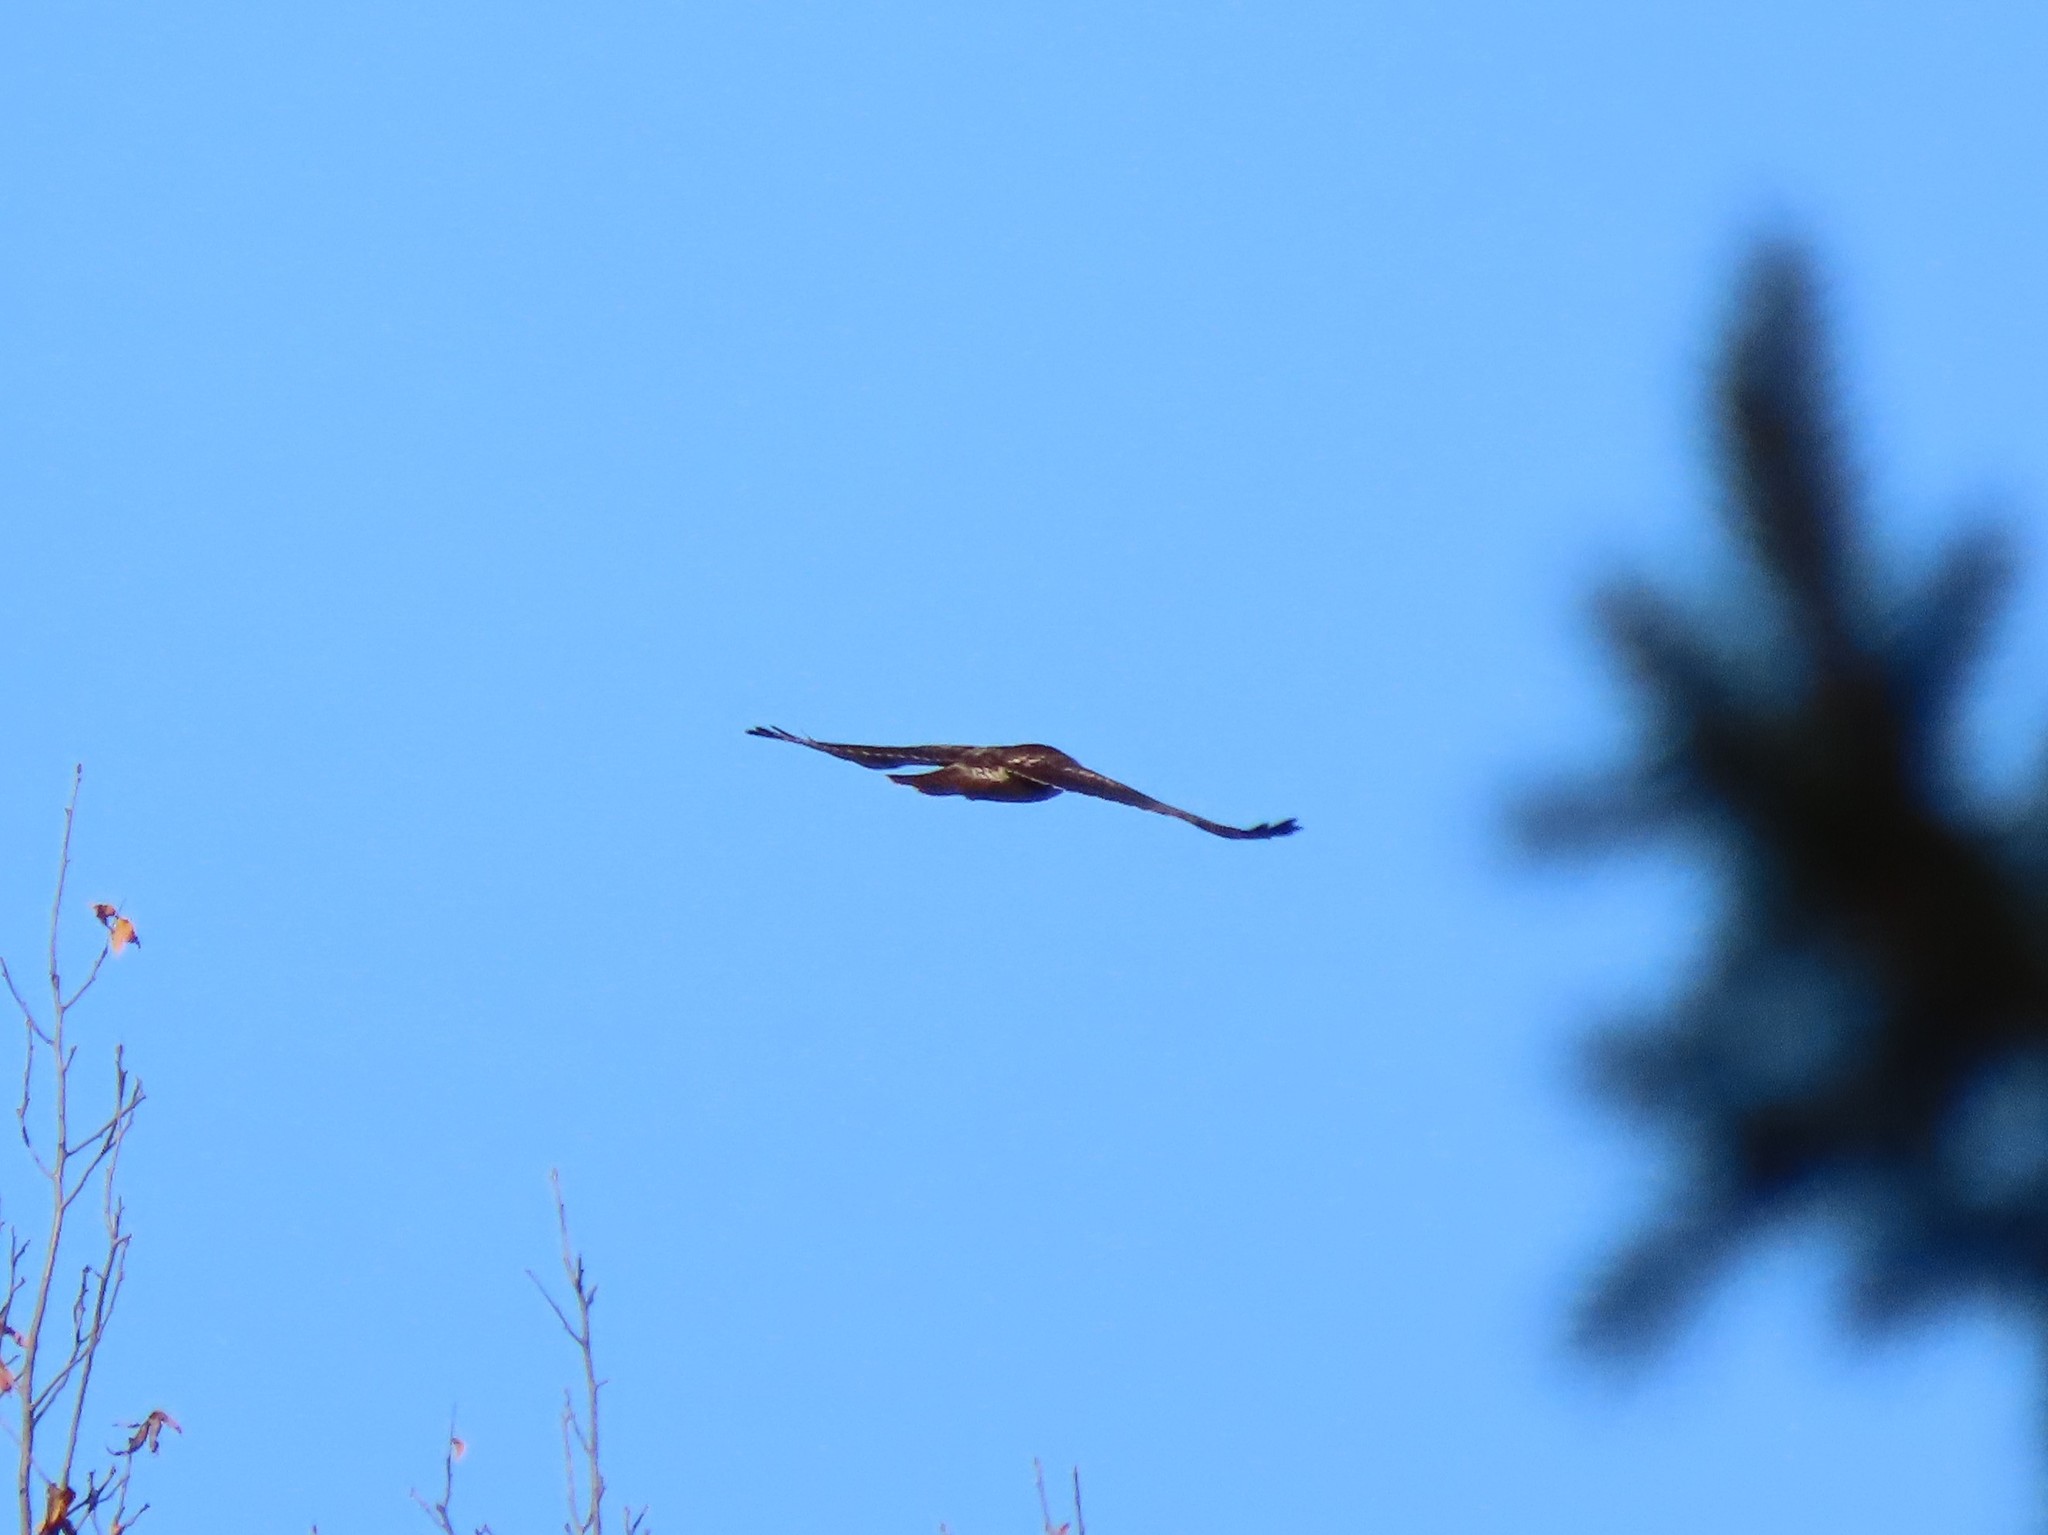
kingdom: Animalia
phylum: Chordata
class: Aves
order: Accipitriformes
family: Accipitridae
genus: Buteo
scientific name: Buteo jamaicensis
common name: Red-tailed hawk
